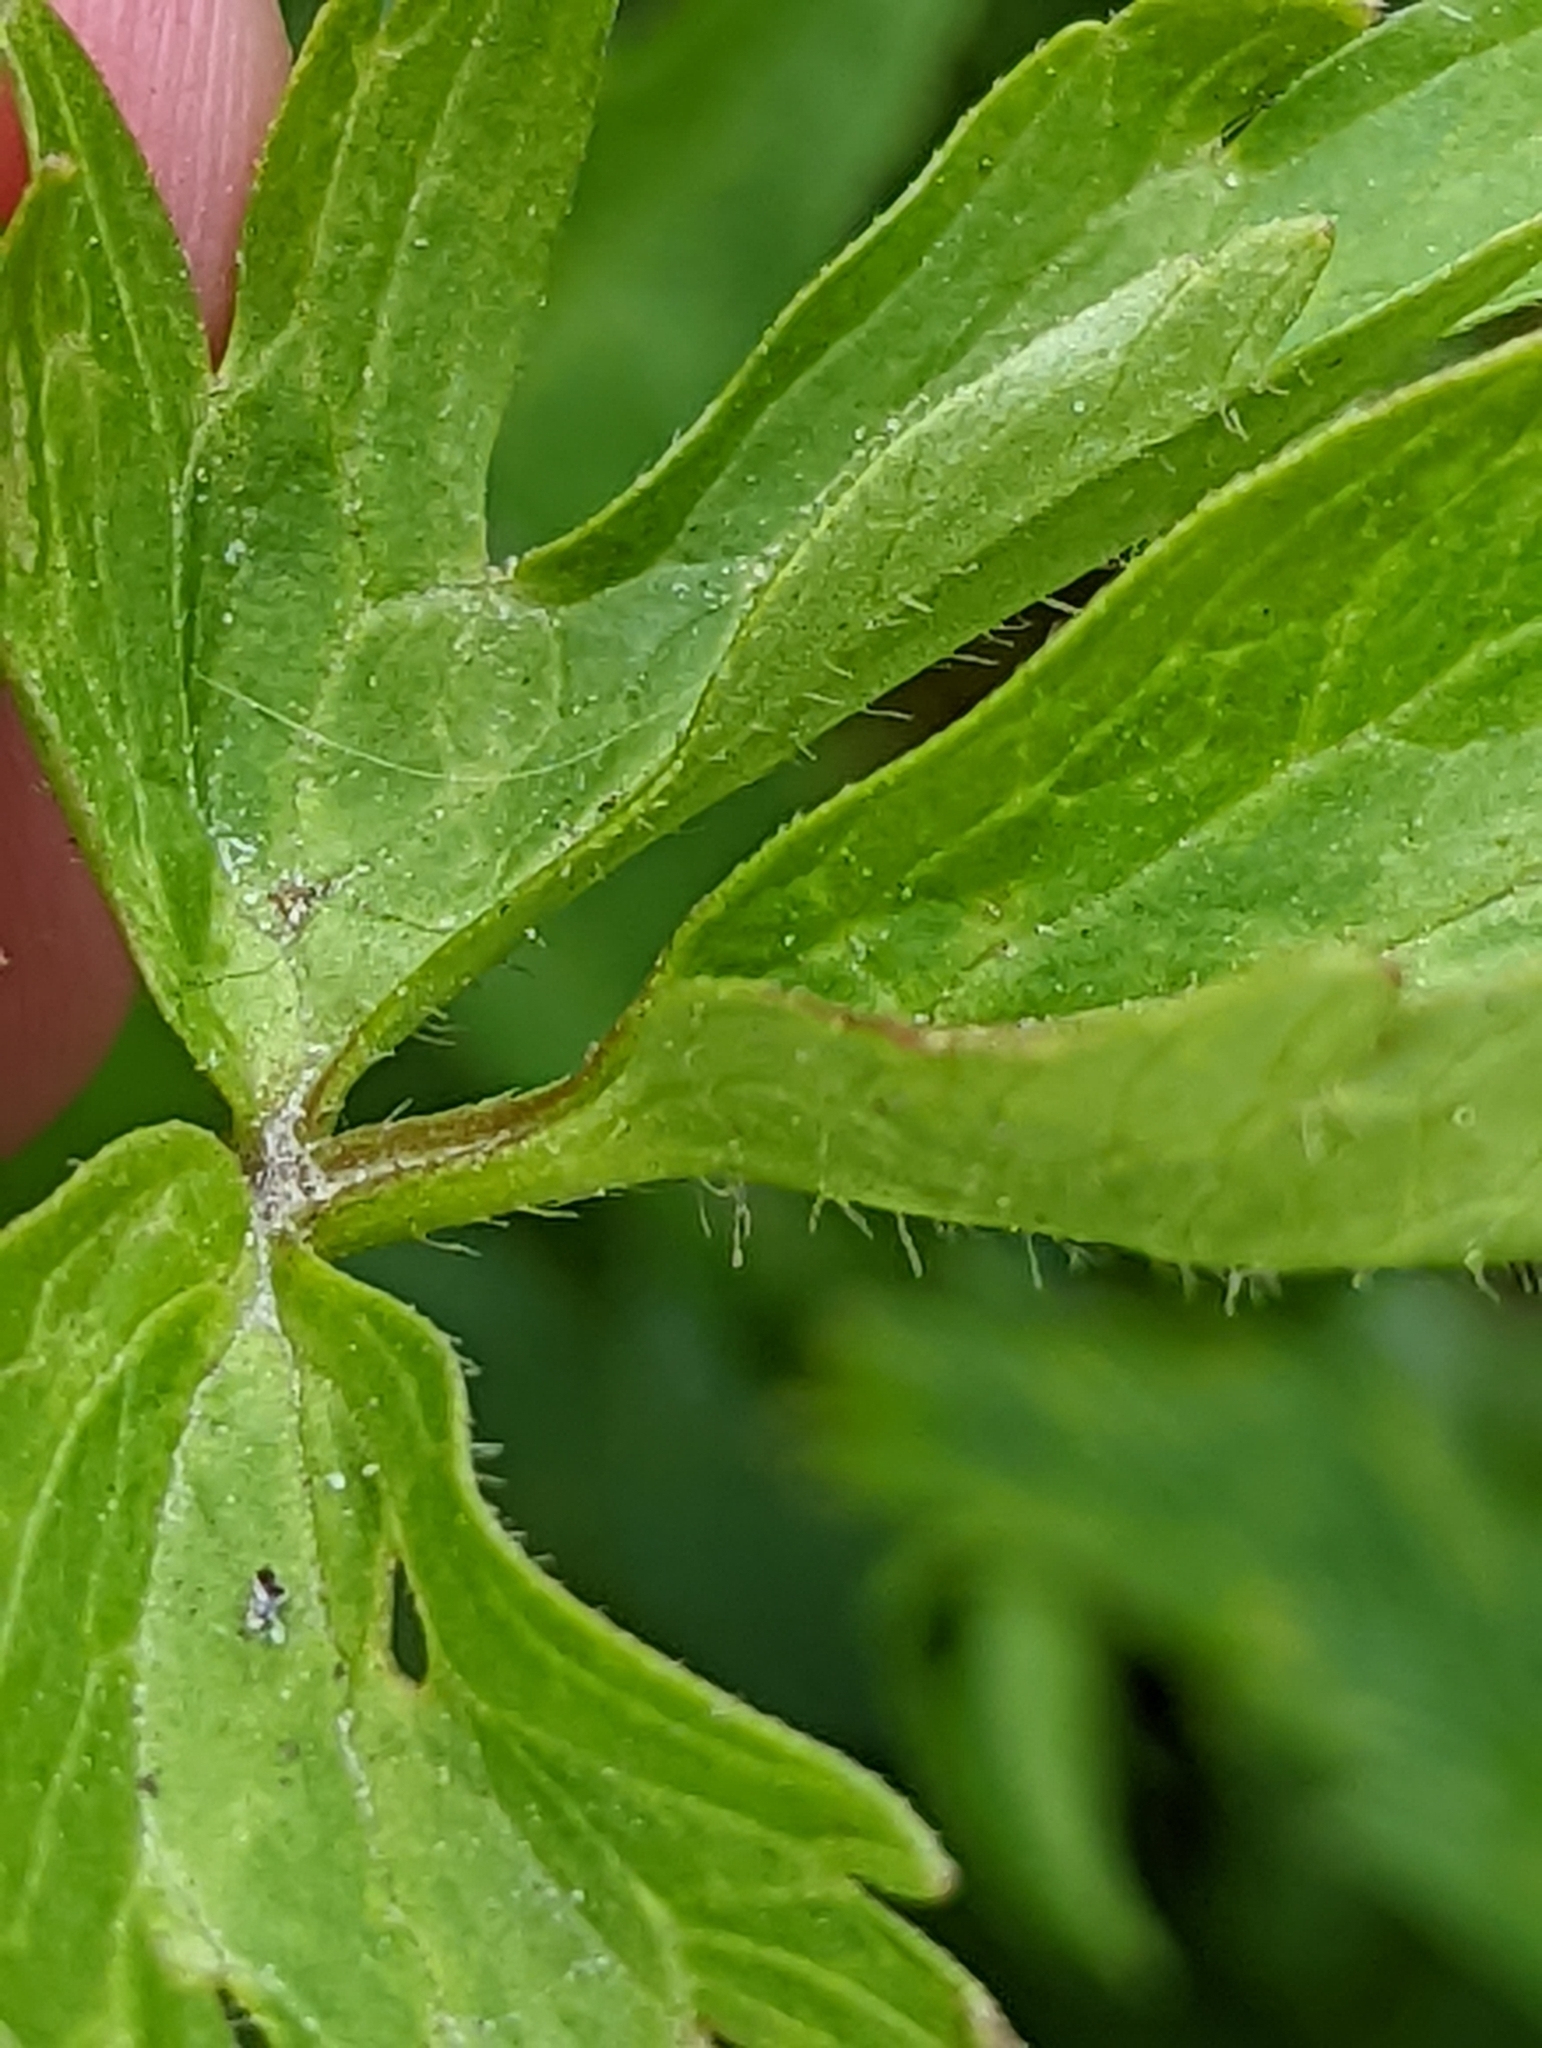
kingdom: Plantae
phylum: Tracheophyta
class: Magnoliopsida
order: Ranunculales
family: Ranunculaceae
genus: Ranunculus
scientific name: Ranunculus orthorhynchus
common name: Straight-beak buttercup
